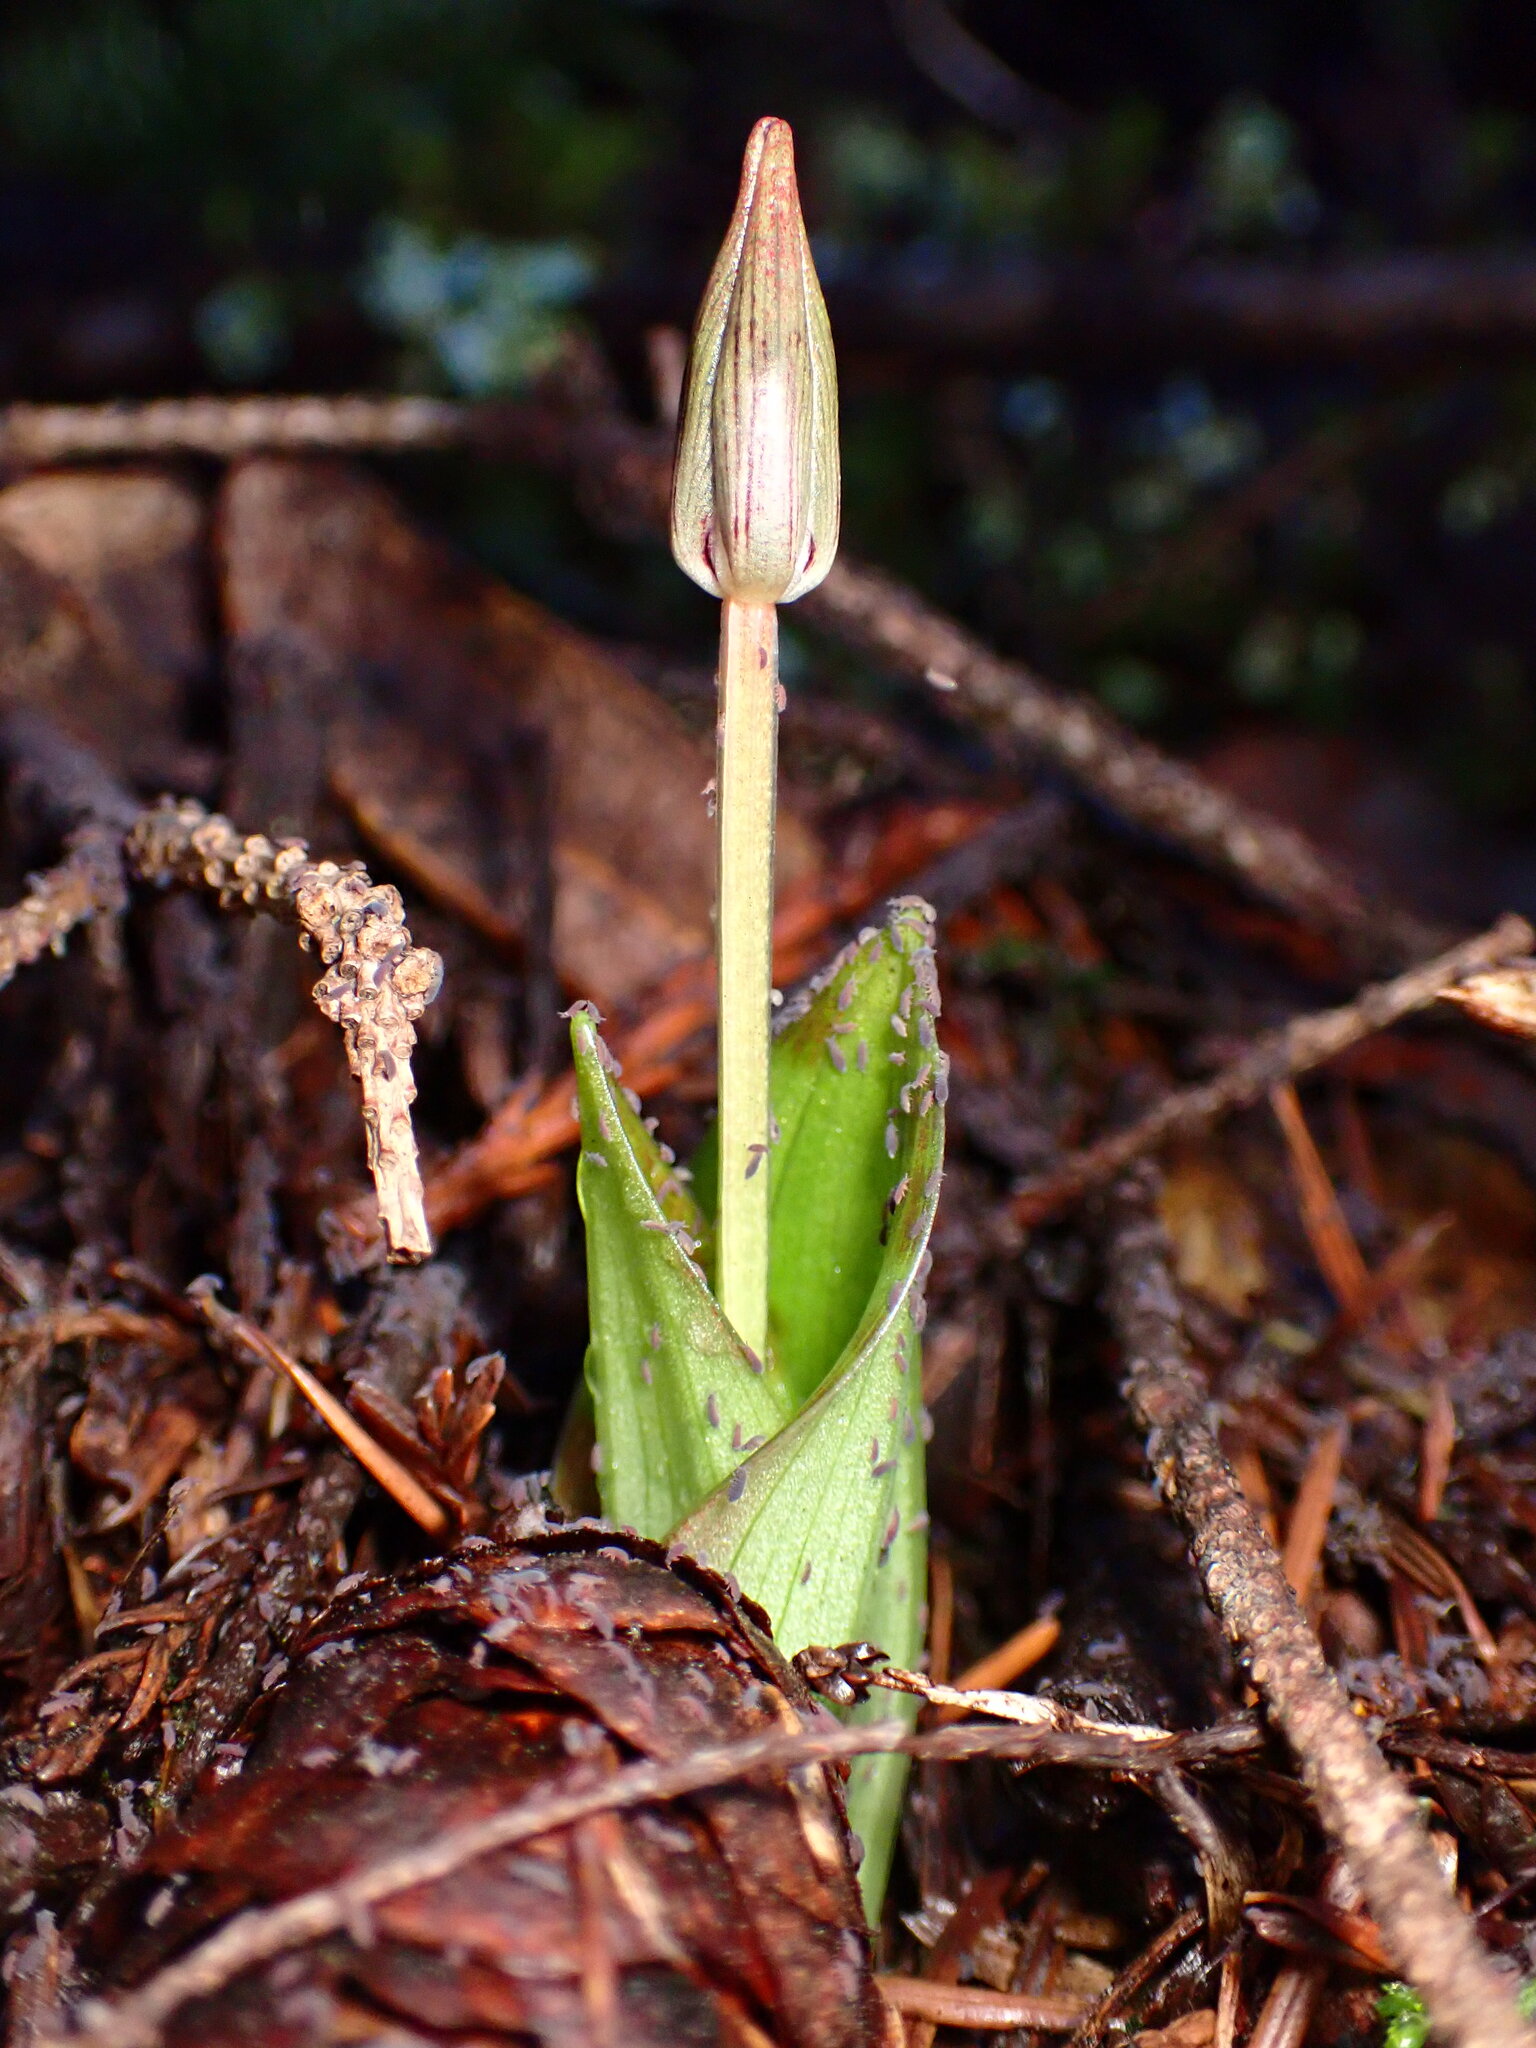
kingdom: Plantae
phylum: Tracheophyta
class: Liliopsida
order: Liliales
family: Liliaceae
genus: Scoliopus
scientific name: Scoliopus bigelovii
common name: Foetid adder's-tongue
